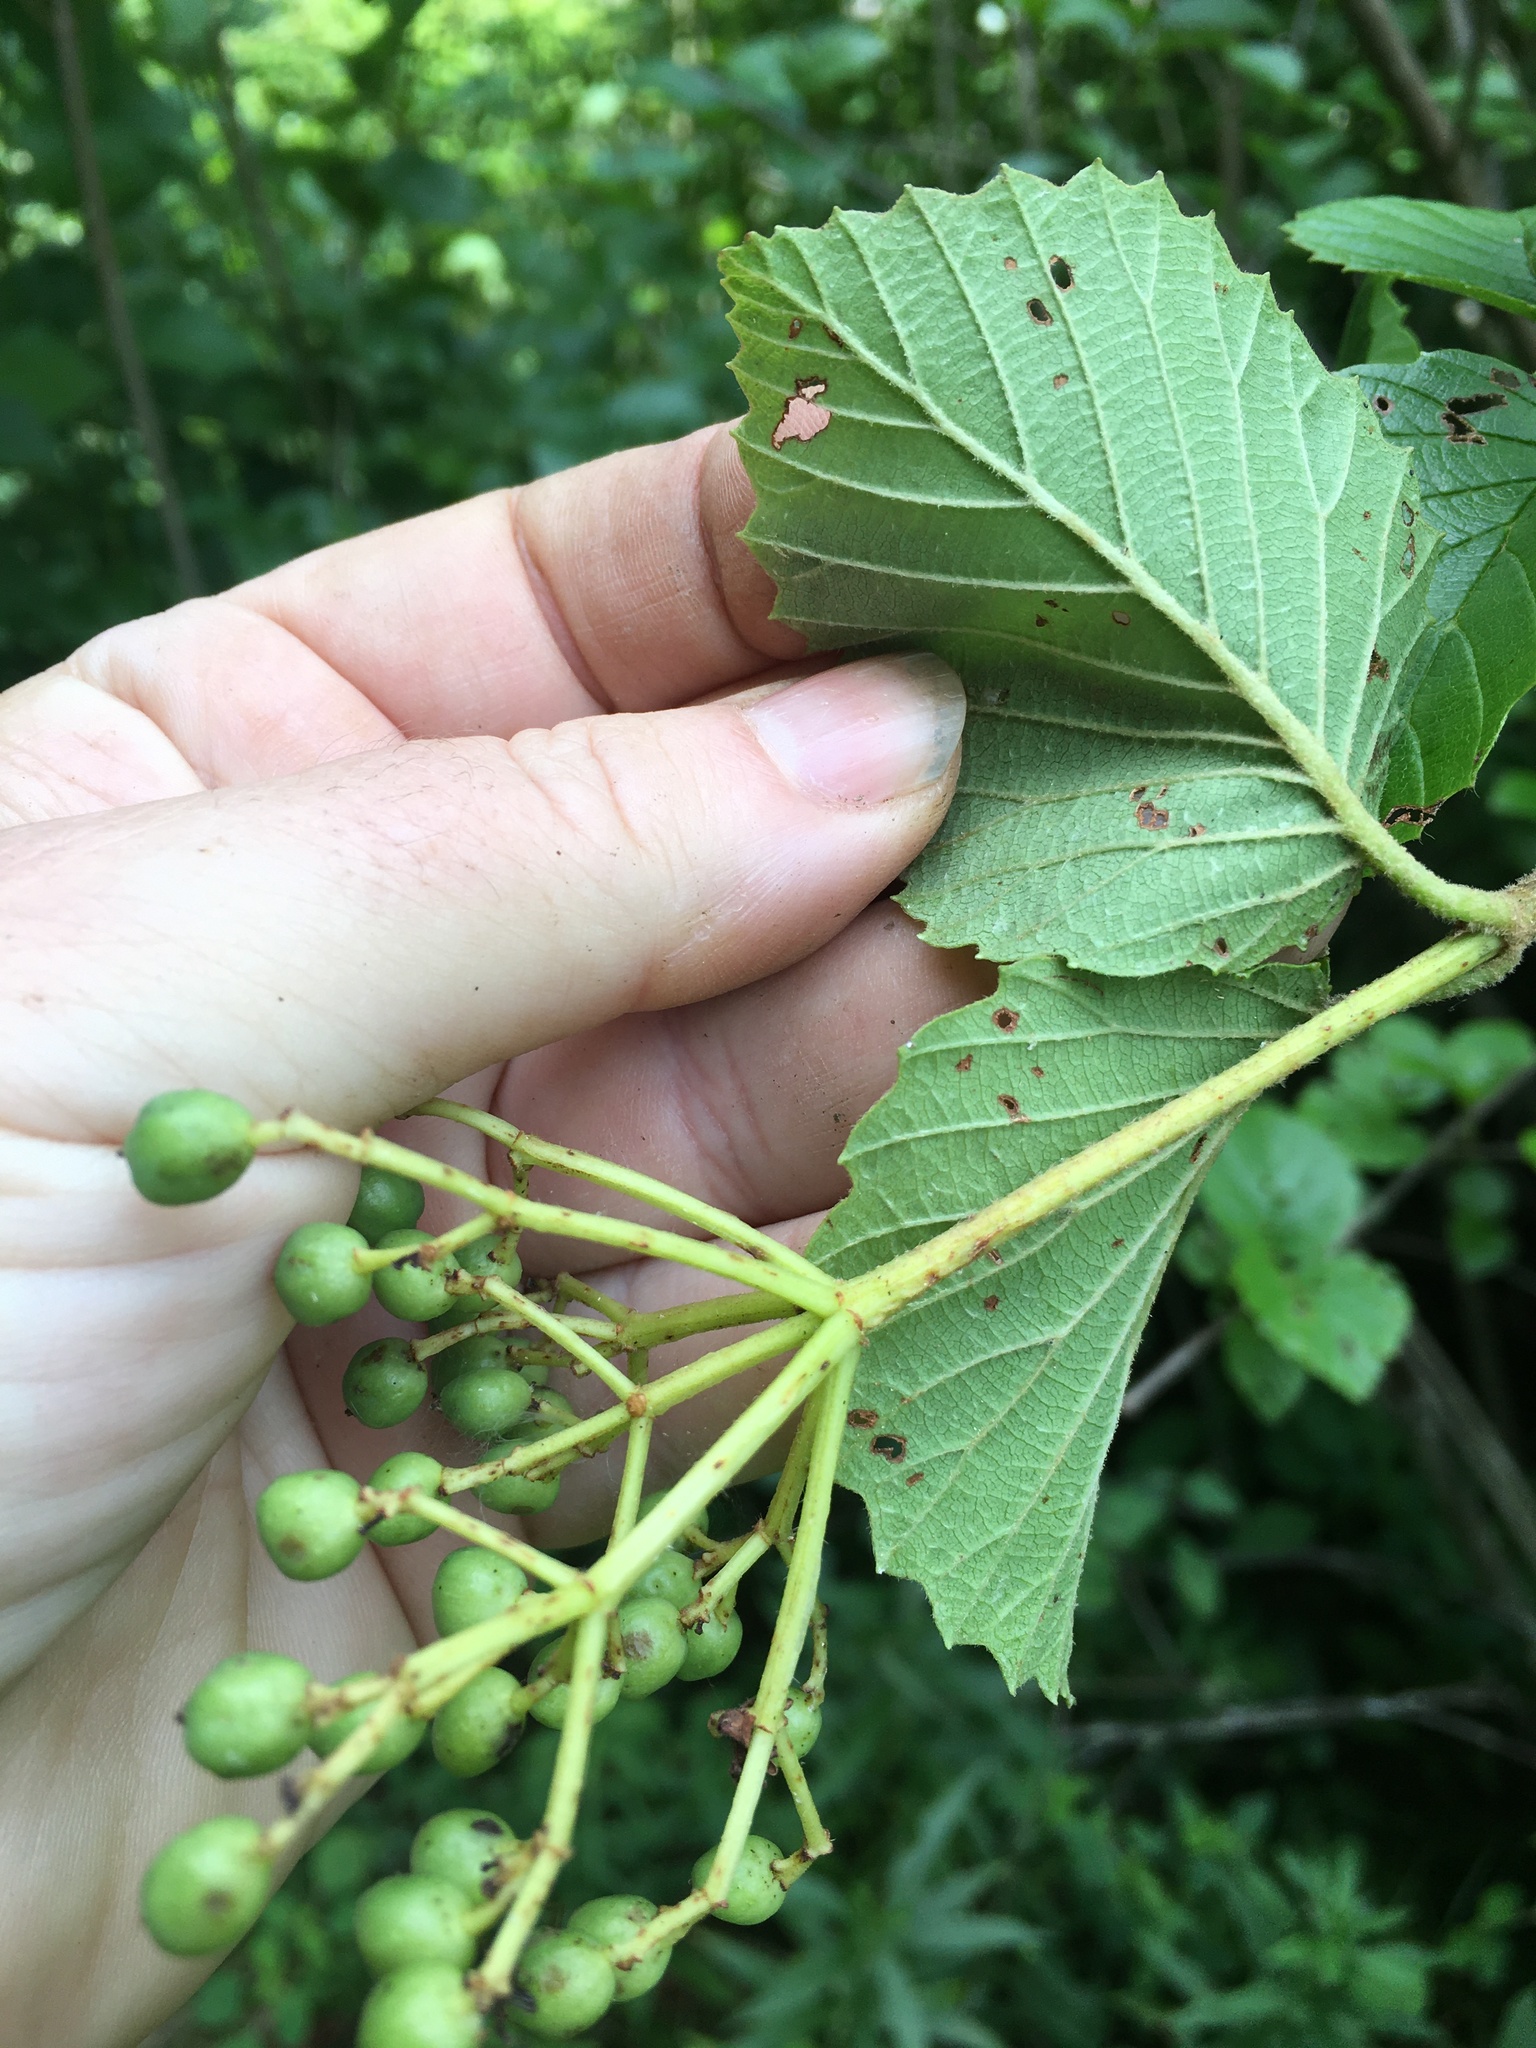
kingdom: Plantae
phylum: Tracheophyta
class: Magnoliopsida
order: Dipsacales
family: Viburnaceae
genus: Viburnum
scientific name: Viburnum dentatum
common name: Arrow-wood
